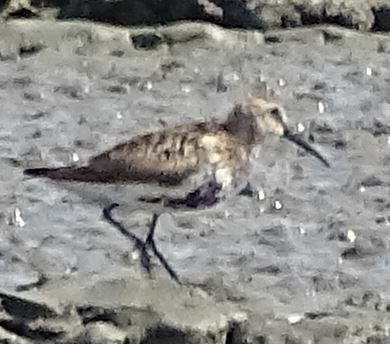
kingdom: Animalia
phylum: Chordata
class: Aves
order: Charadriiformes
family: Scolopacidae
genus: Calidris
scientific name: Calidris alpina
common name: Dunlin
